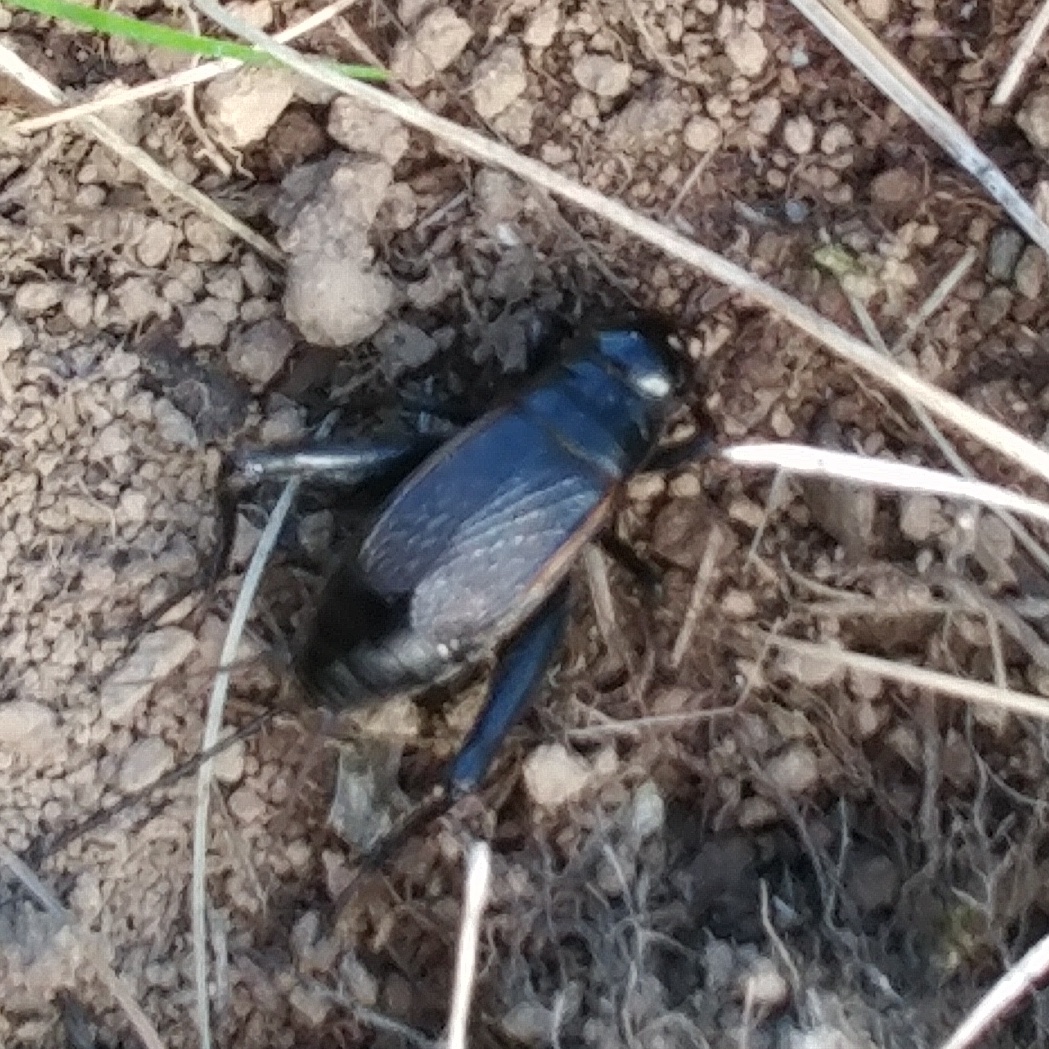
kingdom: Animalia
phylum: Arthropoda
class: Insecta
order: Orthoptera
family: Gryllidae
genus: Gryllus
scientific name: Gryllus pennsylvanicus
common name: Fall field cricket
